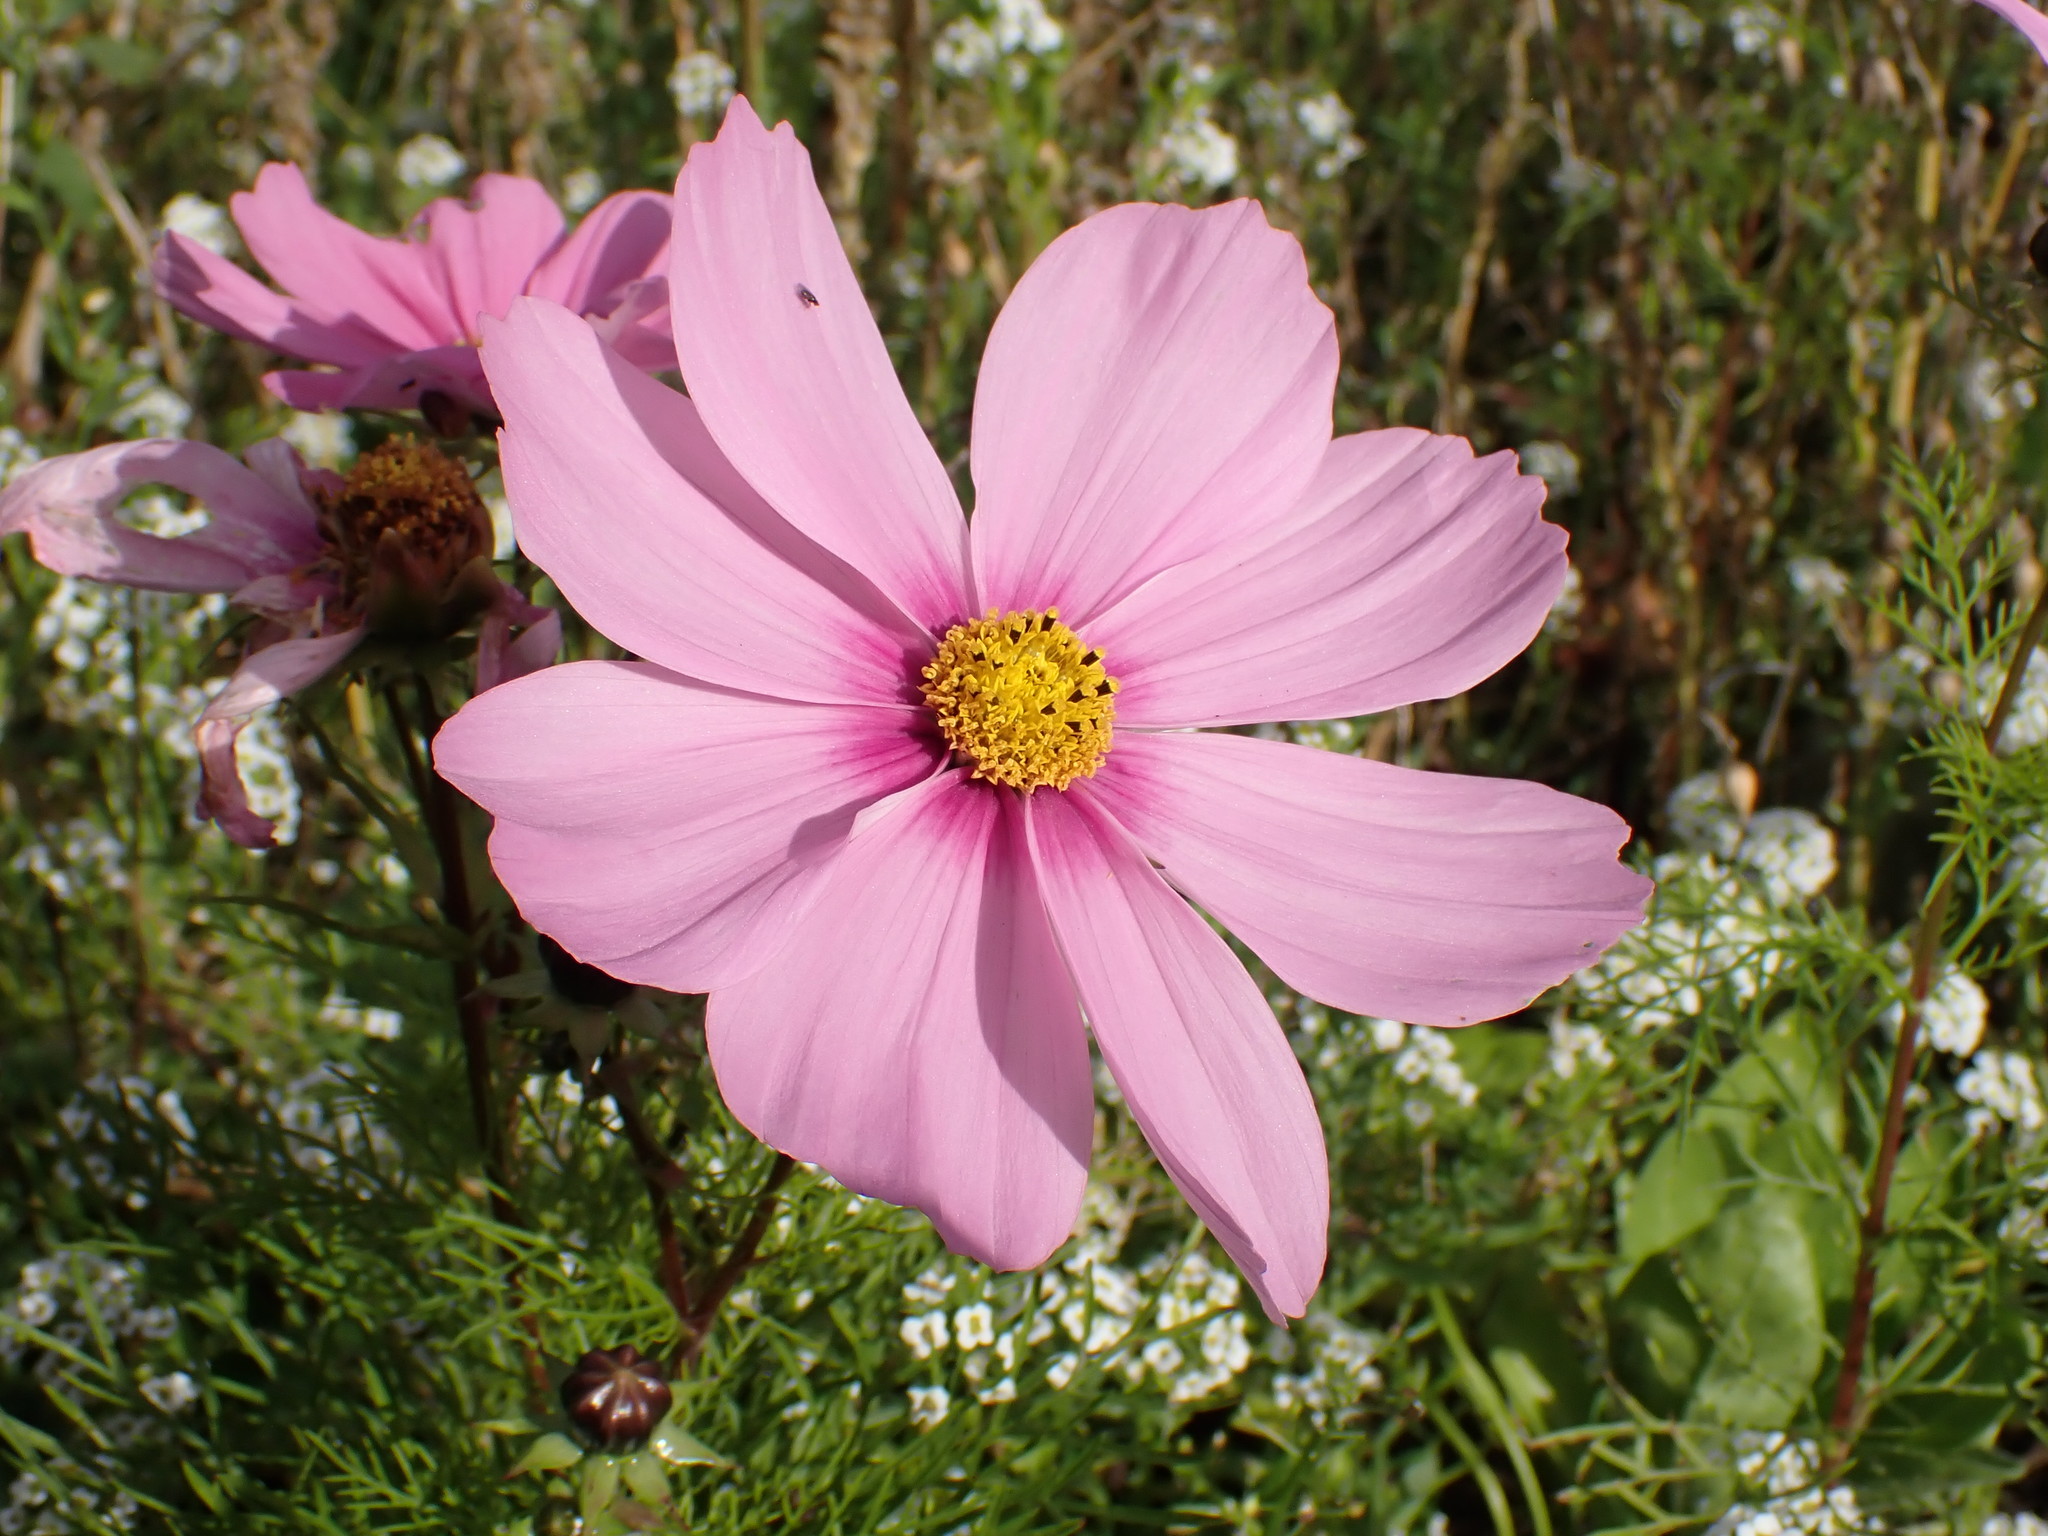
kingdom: Plantae
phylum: Tracheophyta
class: Magnoliopsida
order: Asterales
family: Asteraceae
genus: Cosmos
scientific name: Cosmos bipinnatus
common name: Garden cosmos
